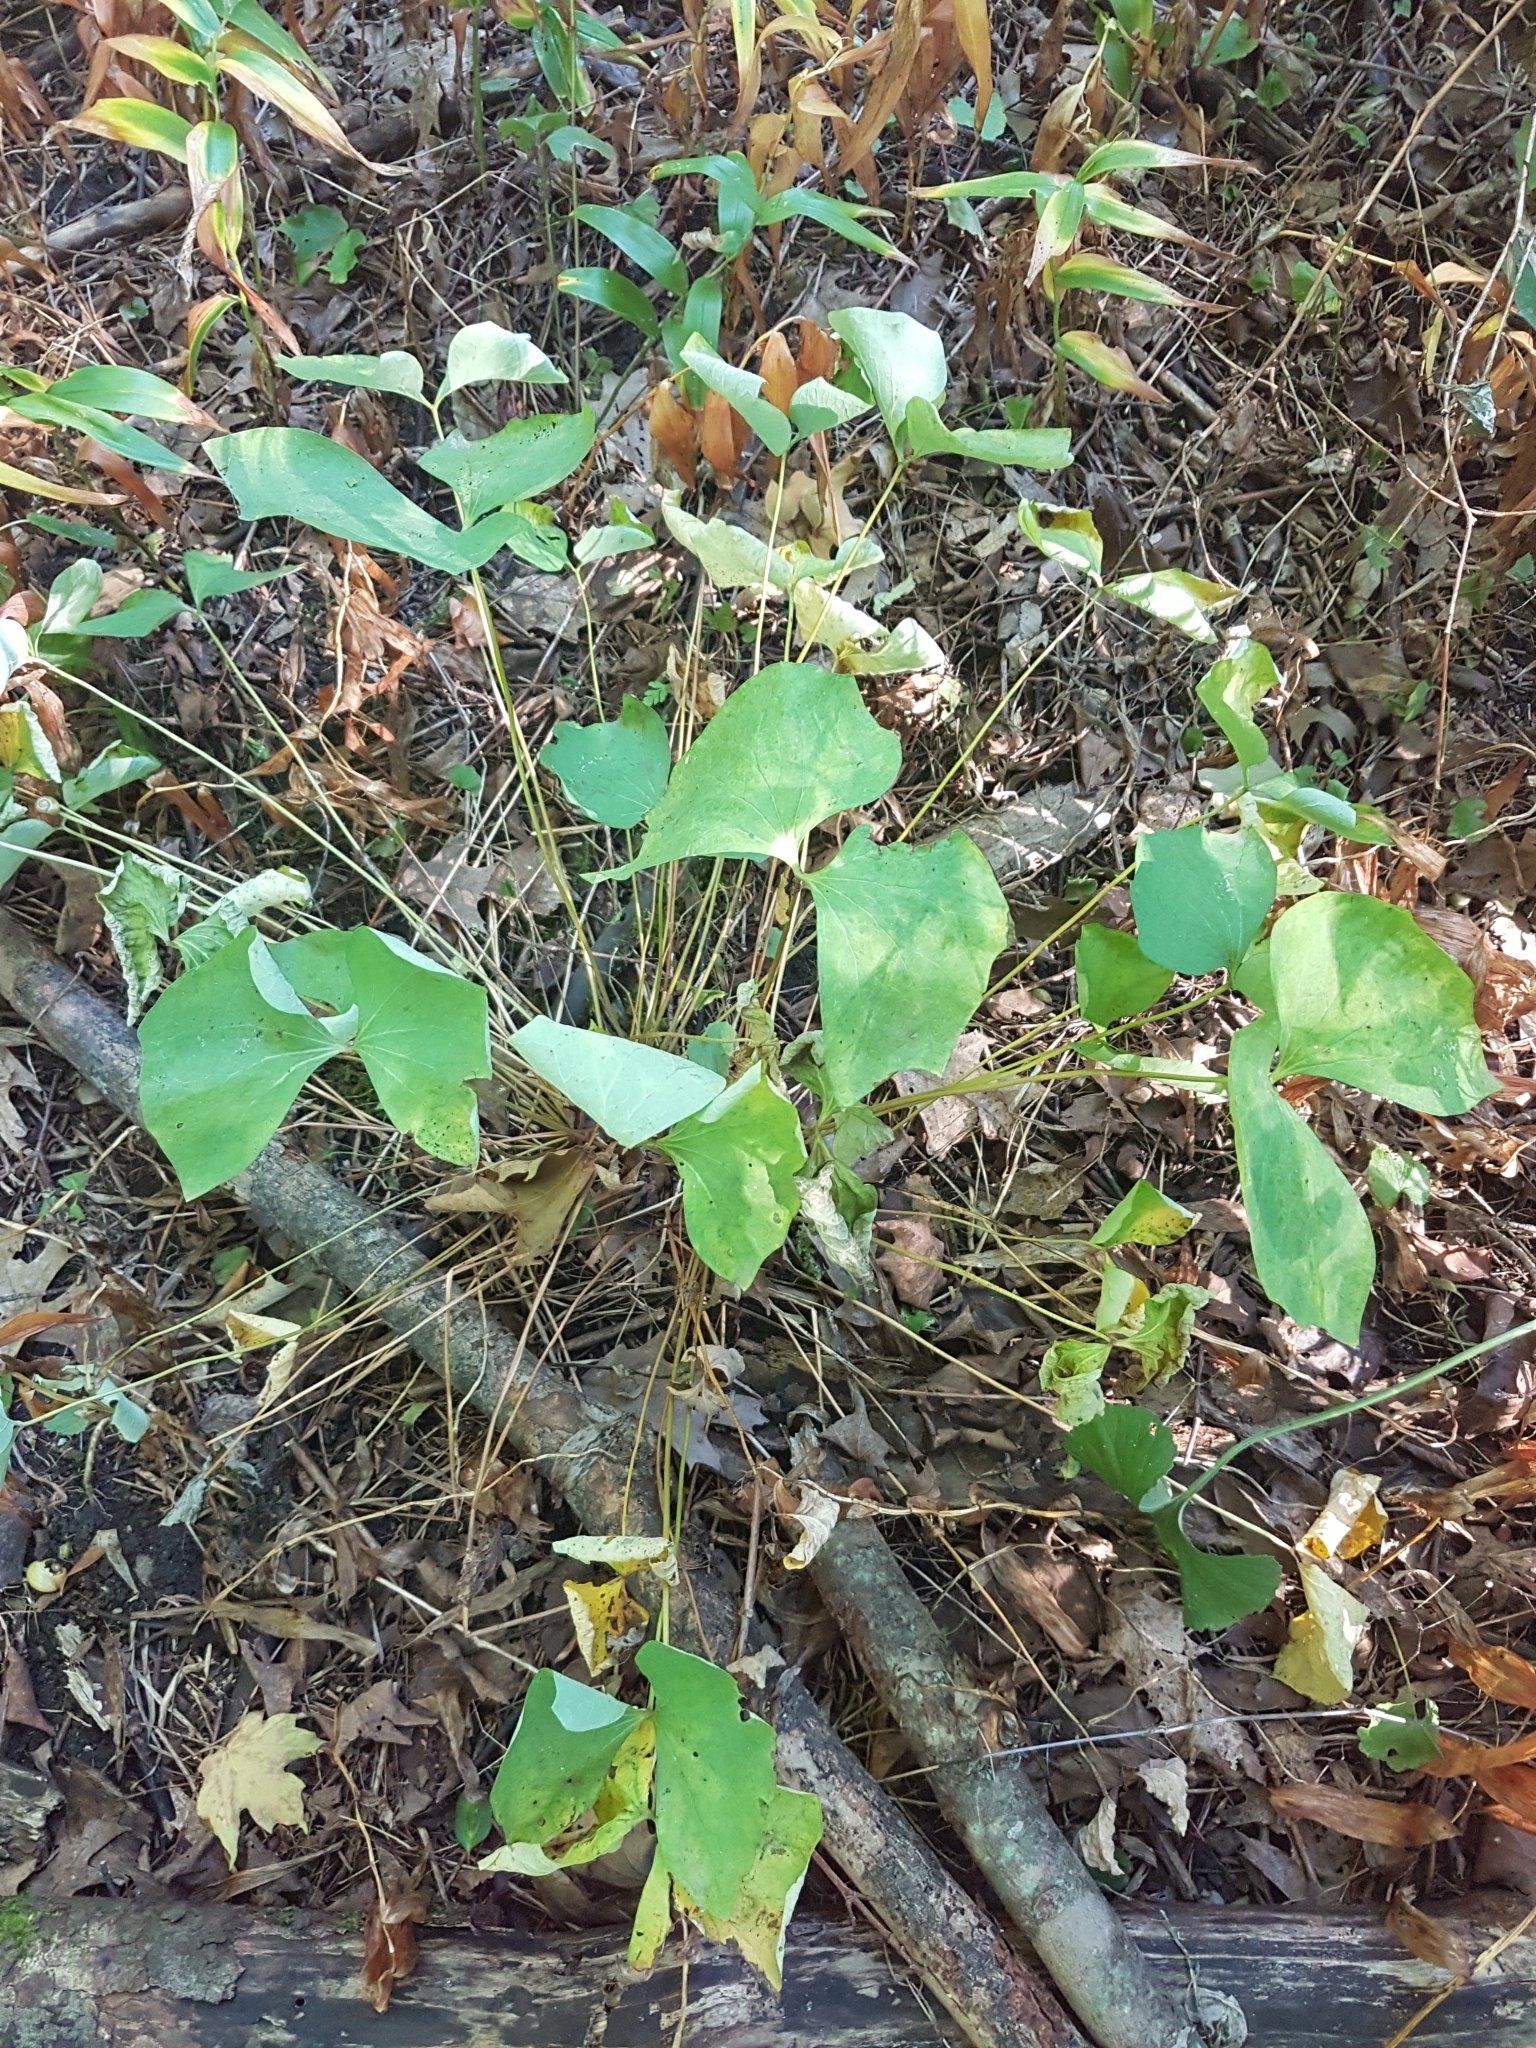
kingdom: Plantae
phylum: Tracheophyta
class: Magnoliopsida
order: Ranunculales
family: Berberidaceae
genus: Jeffersonia
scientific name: Jeffersonia diphylla
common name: Rheumatism-root
